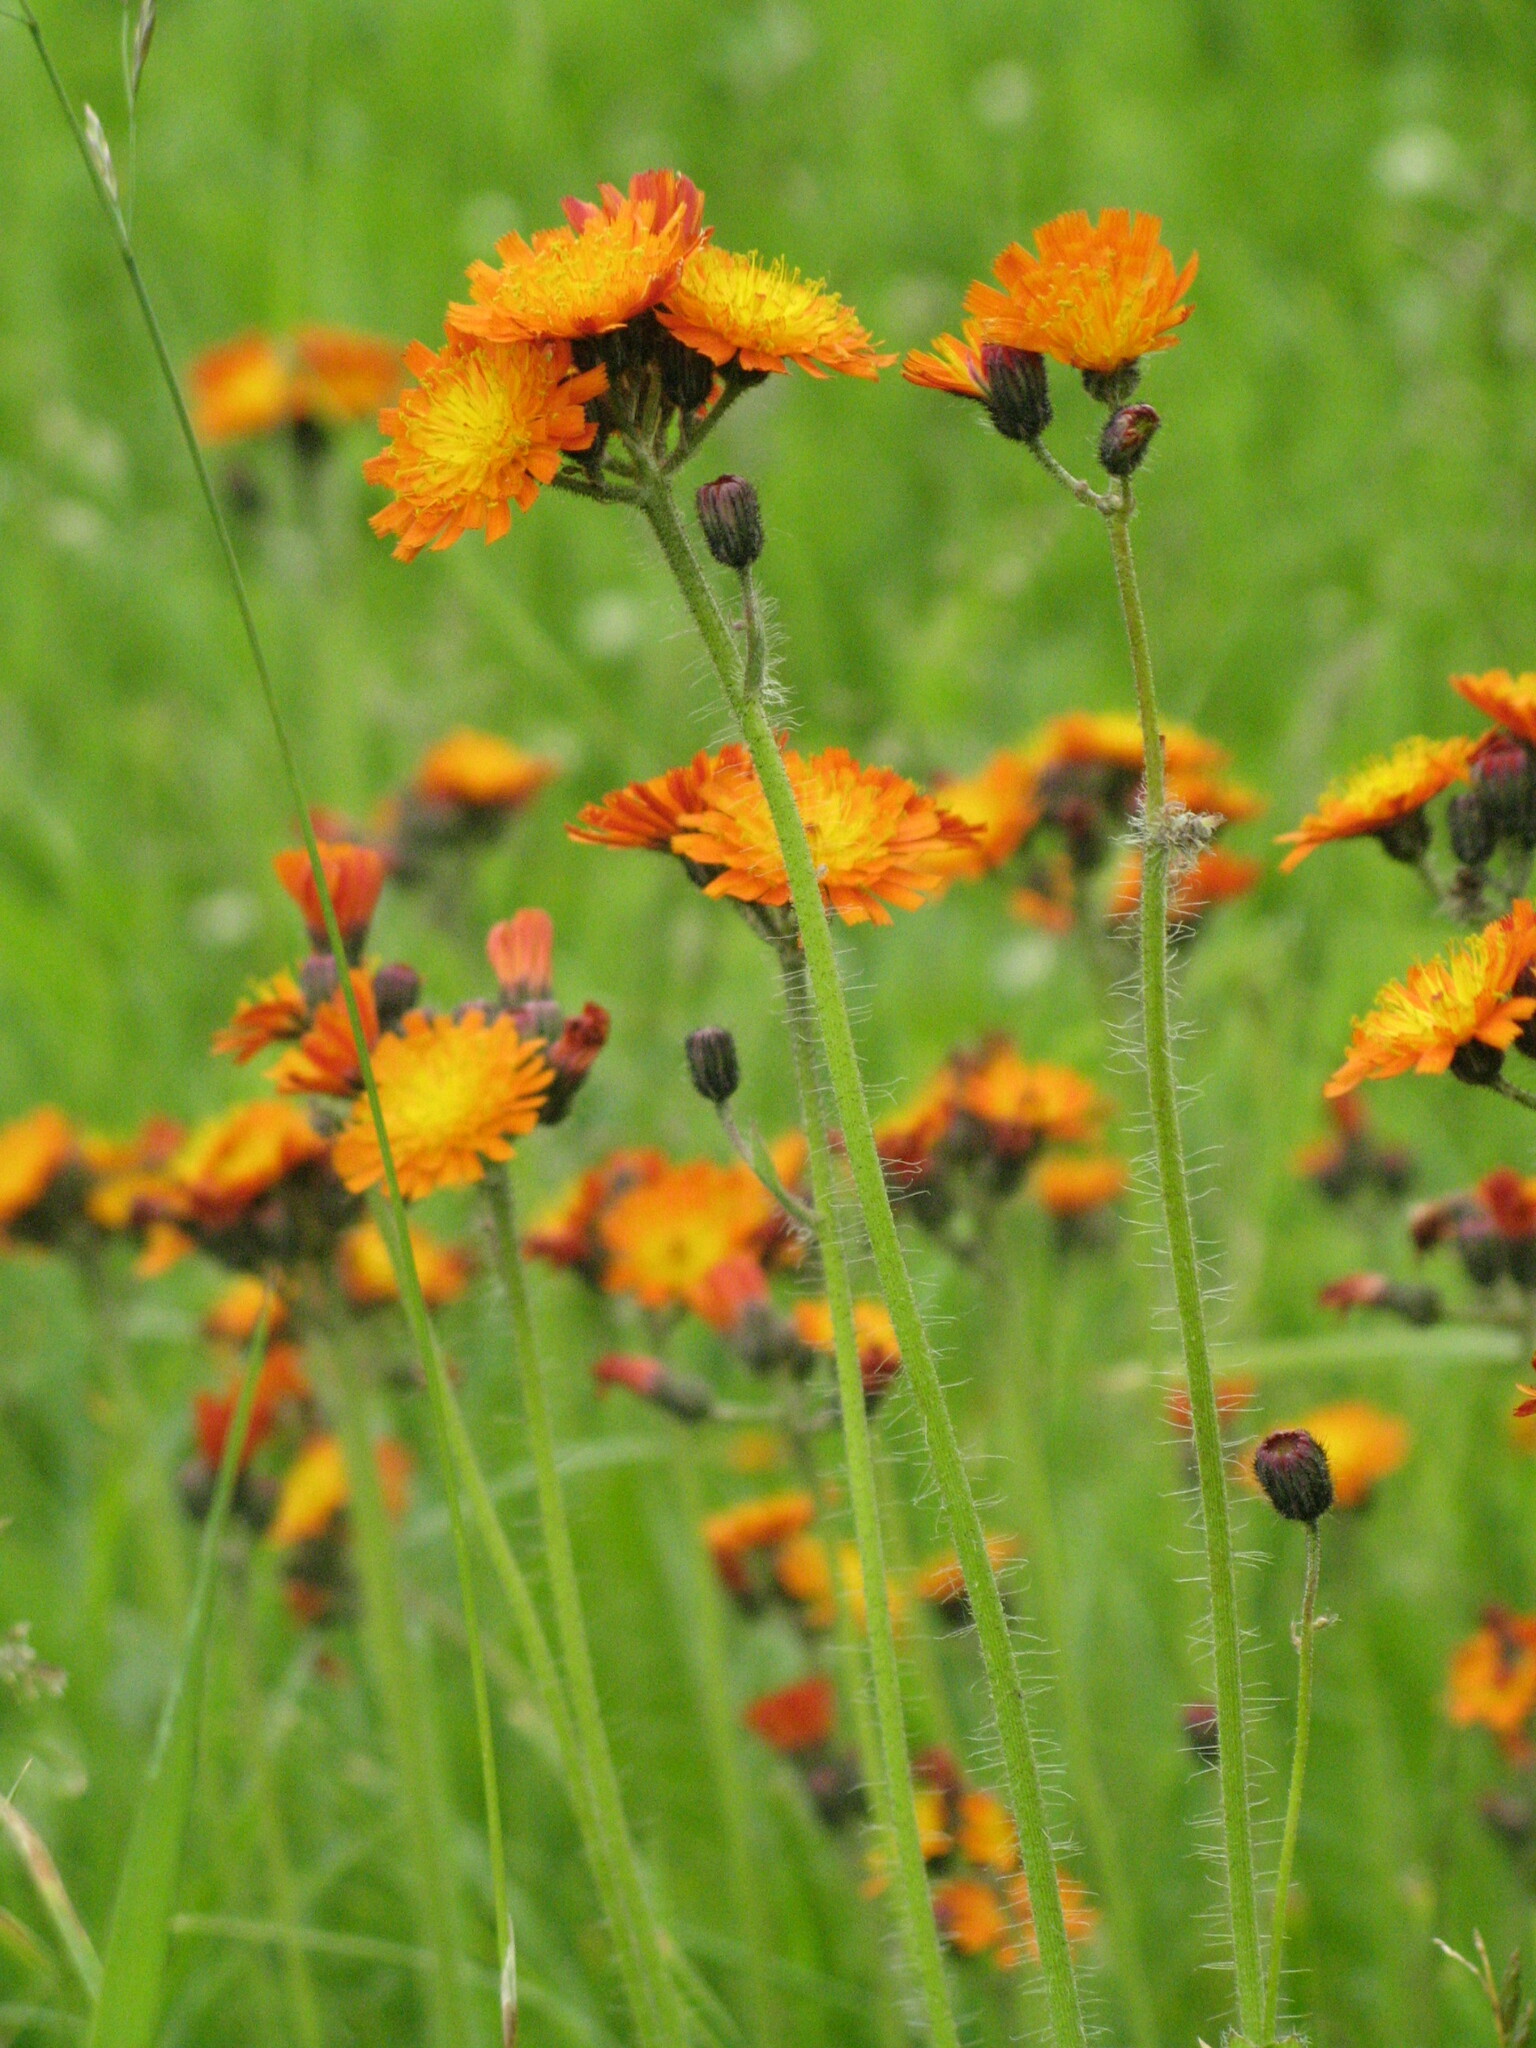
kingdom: Plantae
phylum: Tracheophyta
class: Magnoliopsida
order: Asterales
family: Asteraceae
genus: Pilosella
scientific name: Pilosella aurantiaca
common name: Fox-and-cubs
